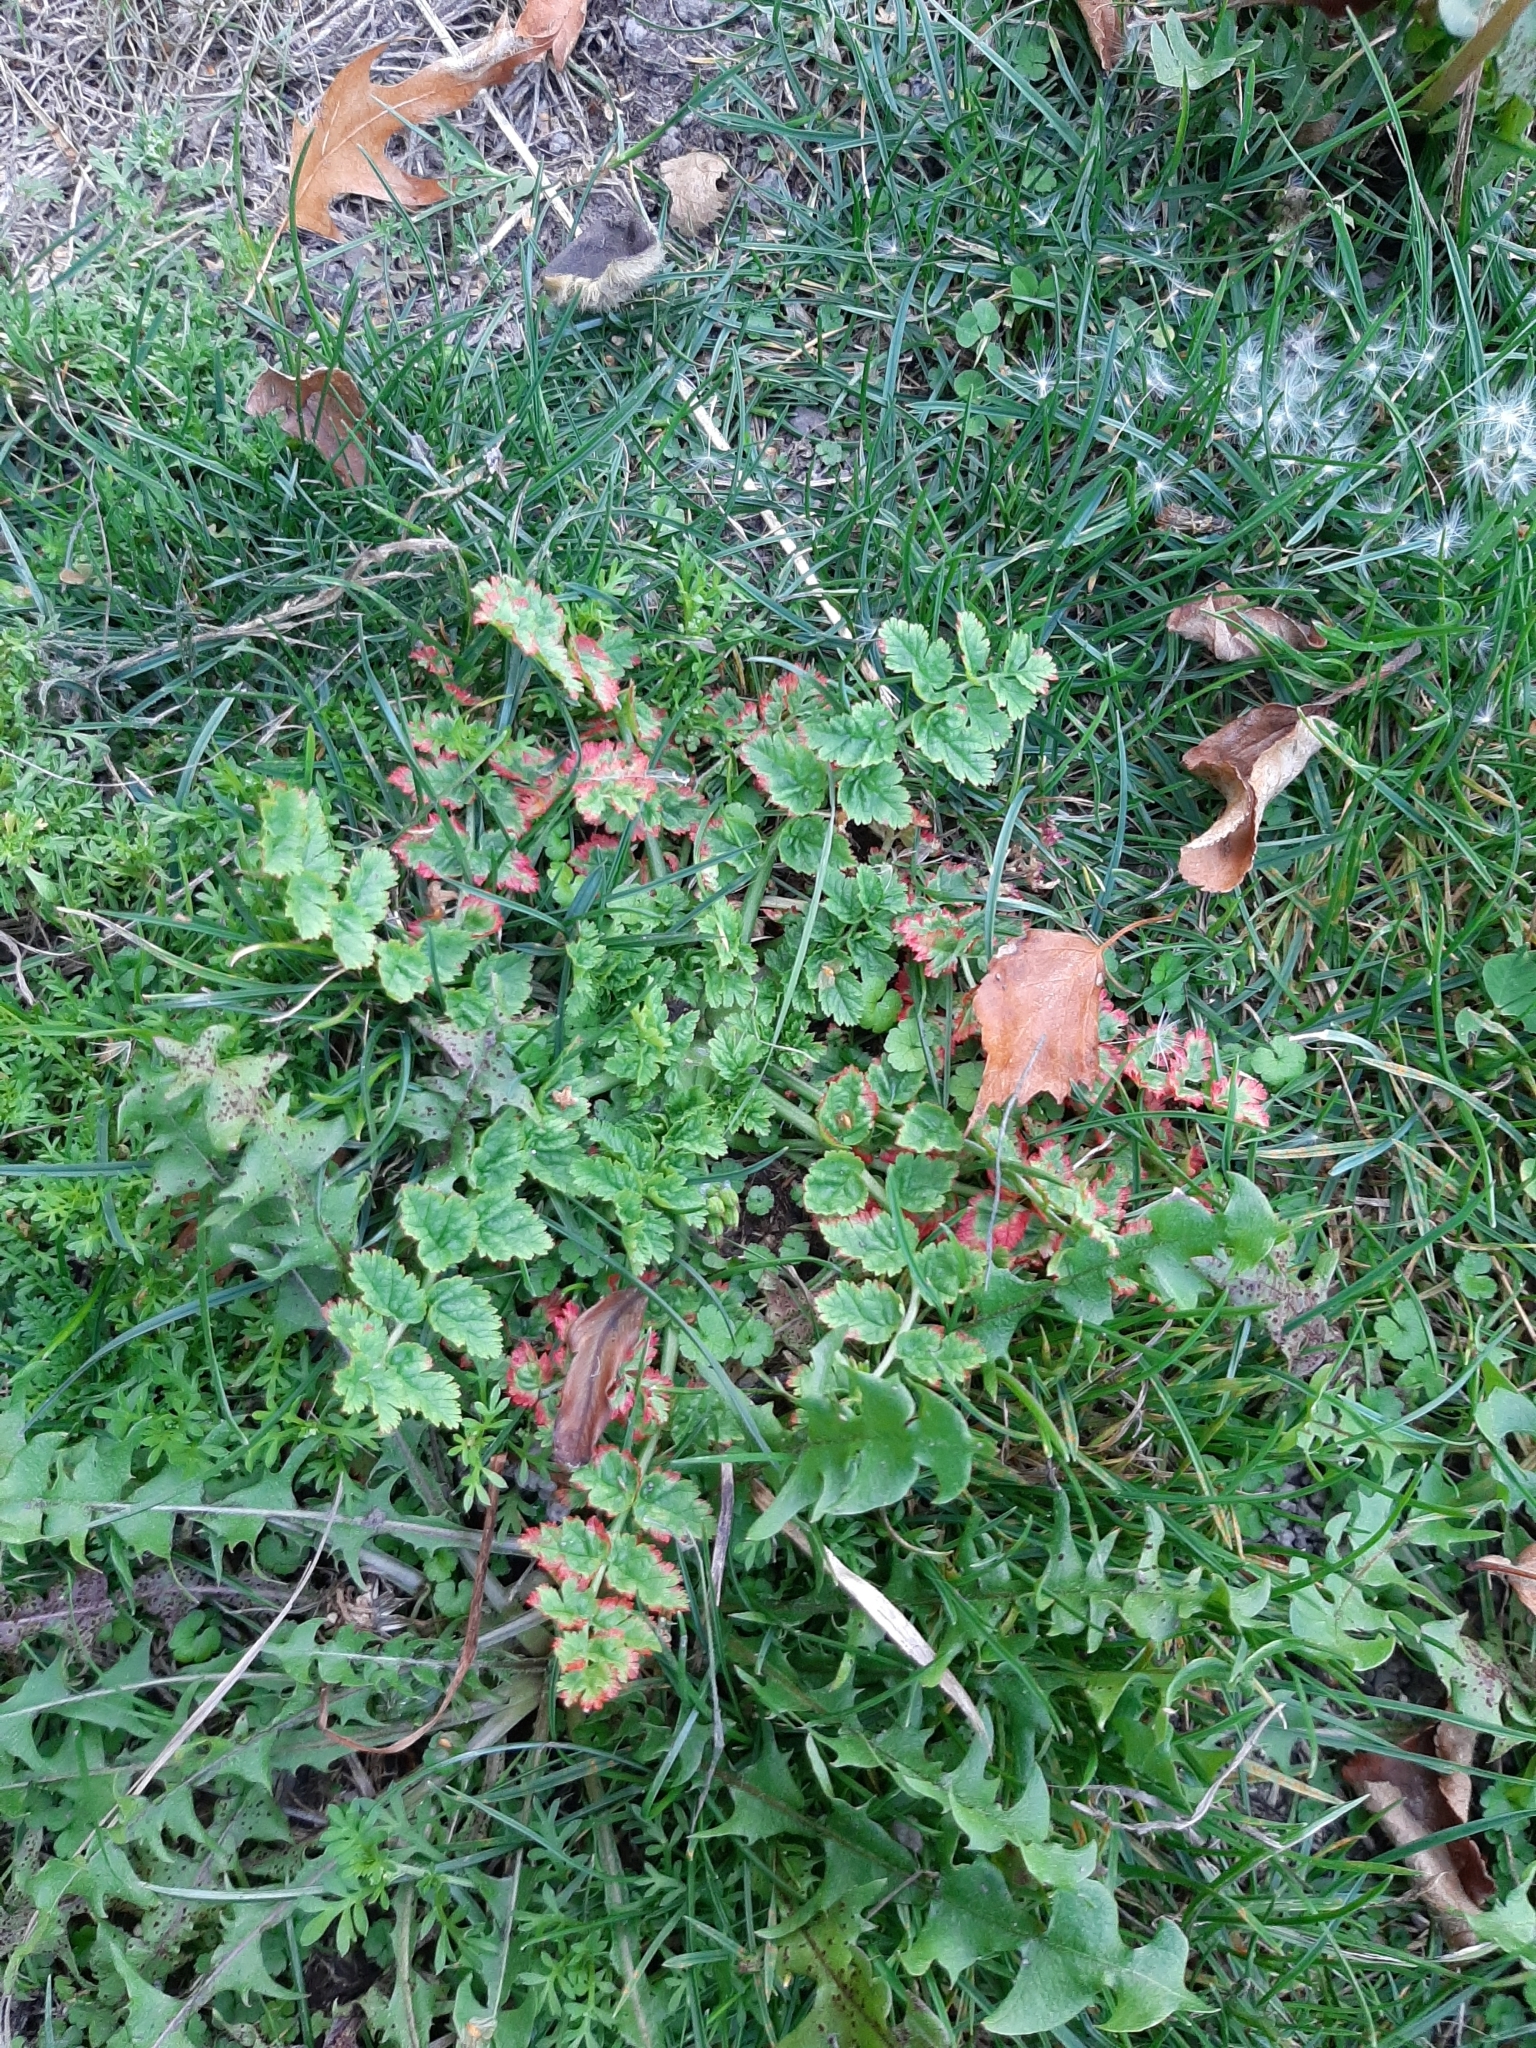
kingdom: Plantae
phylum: Tracheophyta
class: Magnoliopsida
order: Geraniales
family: Geraniaceae
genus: Erodium
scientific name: Erodium moschatum
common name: Musk stork's-bill
